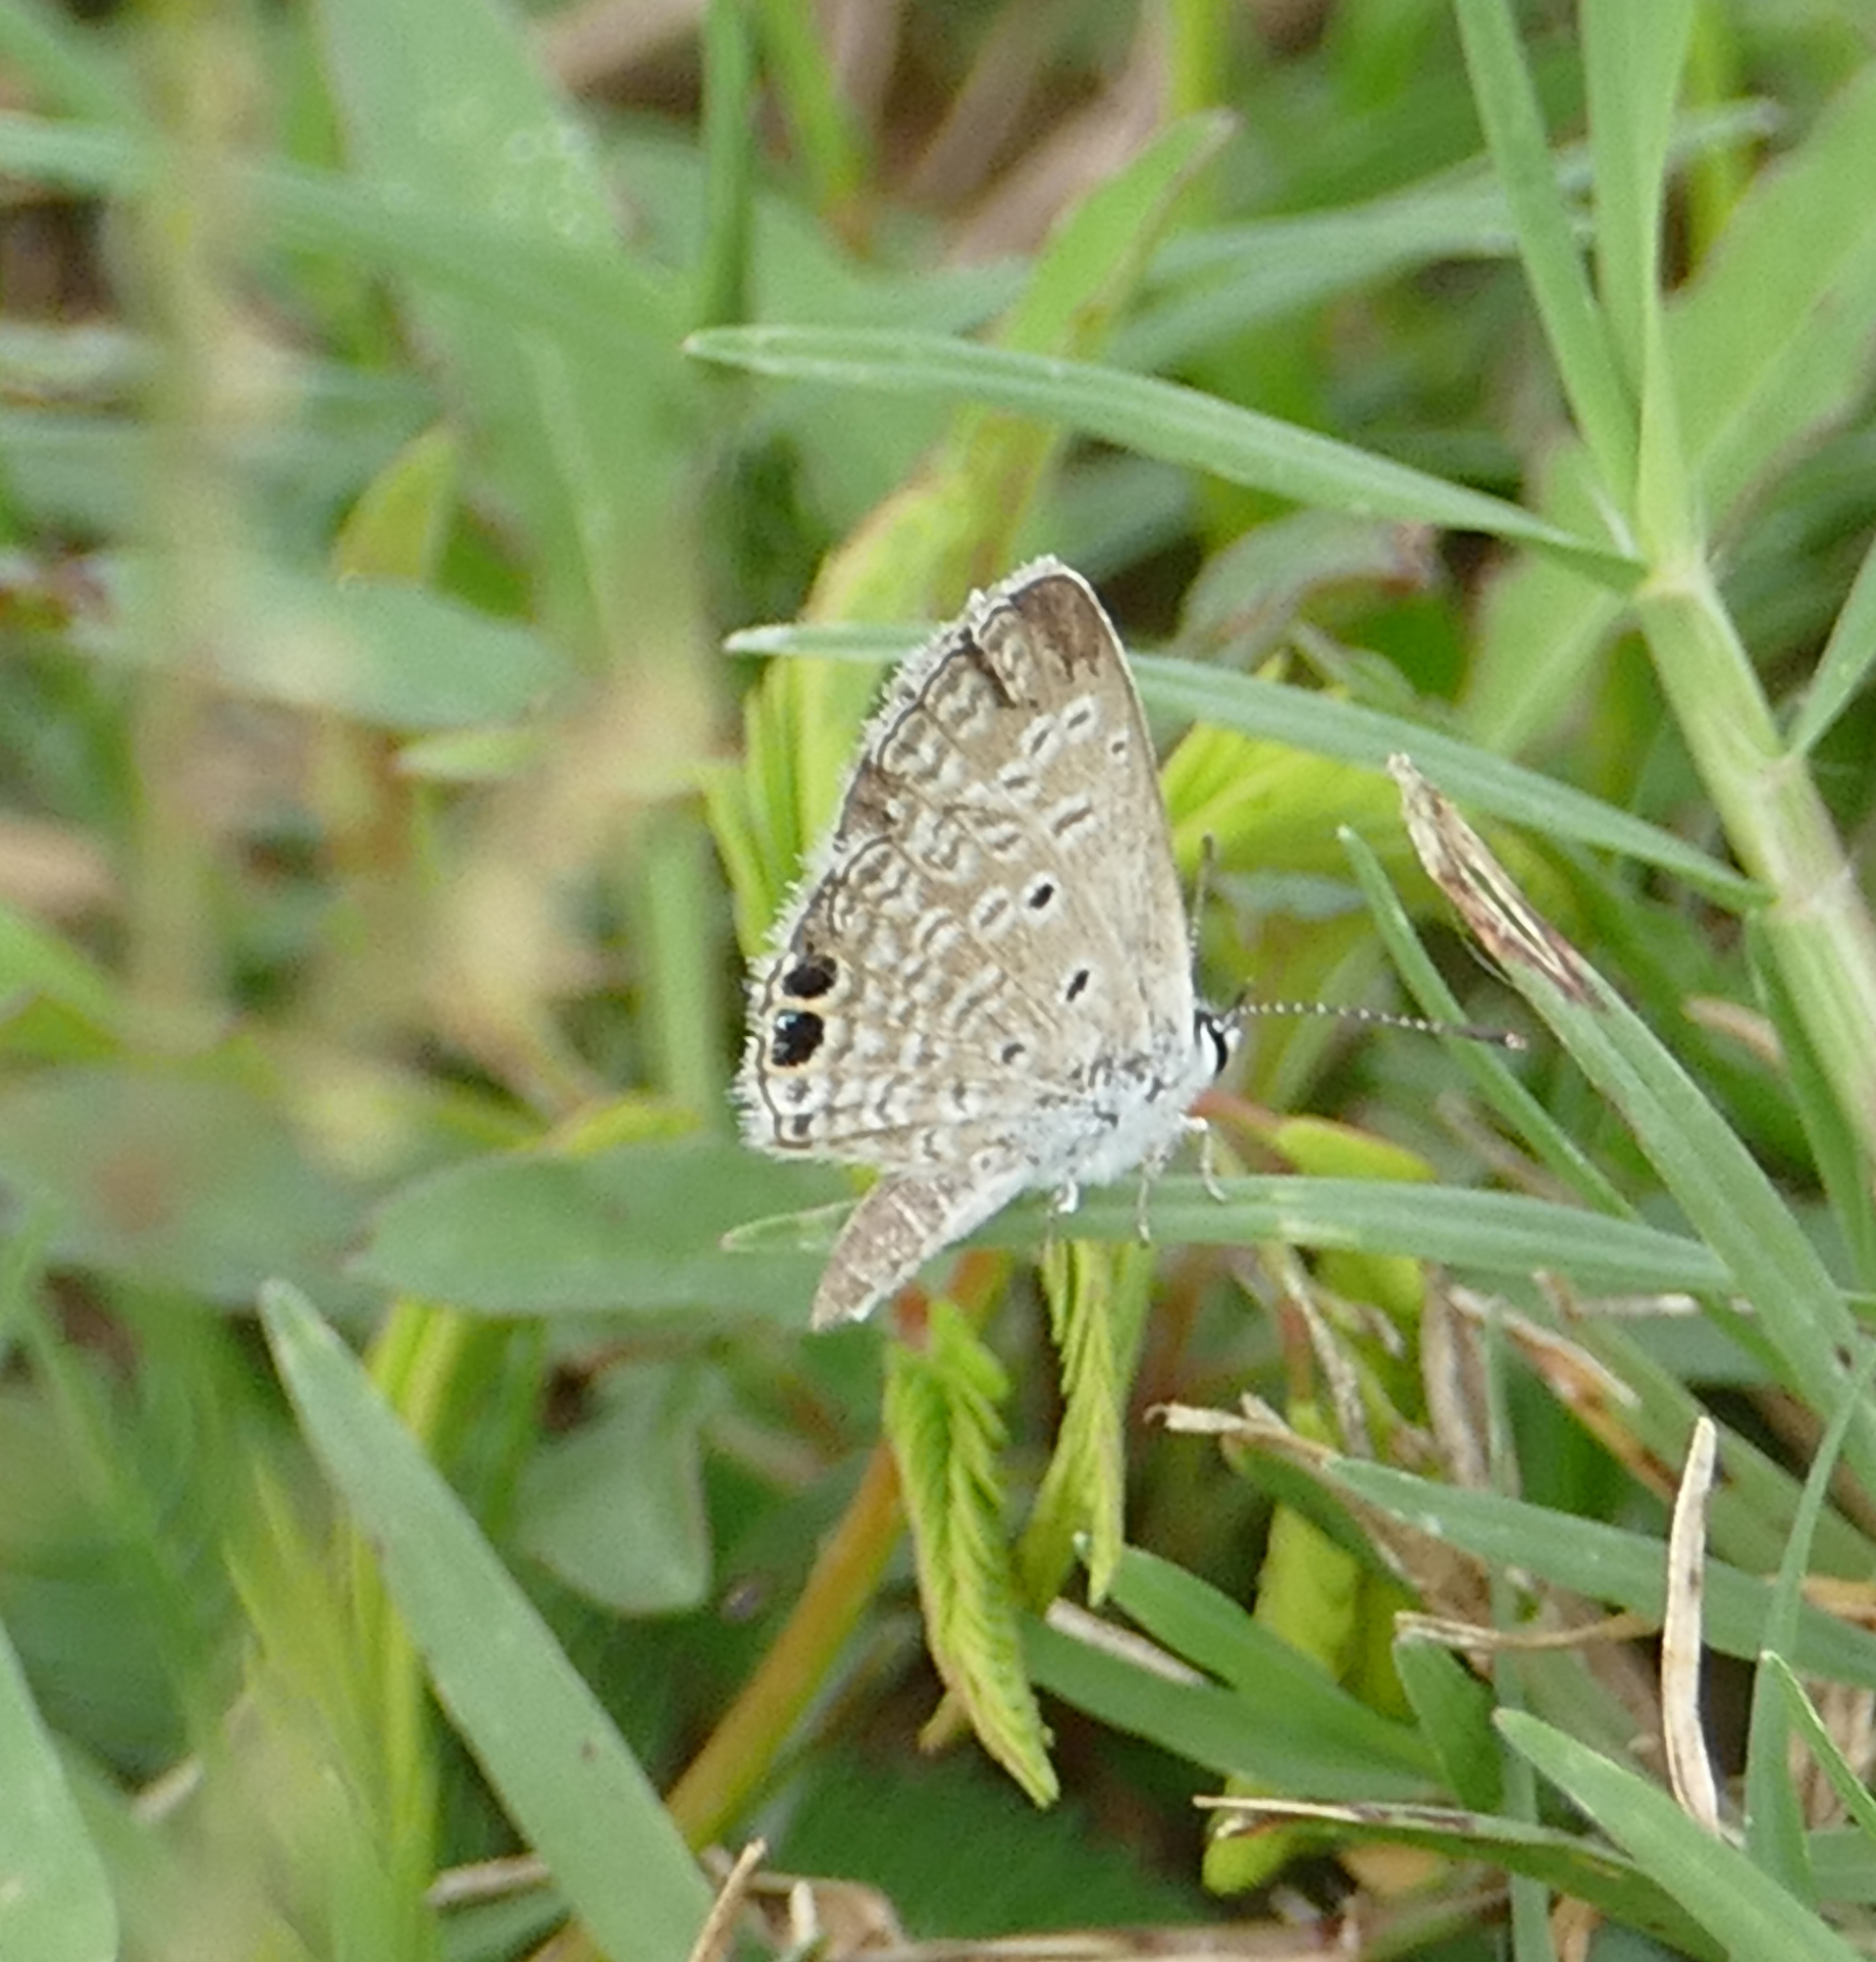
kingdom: Animalia
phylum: Arthropoda
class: Insecta
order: Lepidoptera
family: Lycaenidae
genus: Hemiargus
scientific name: Hemiargus ceraunus
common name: Ceraunus blue
